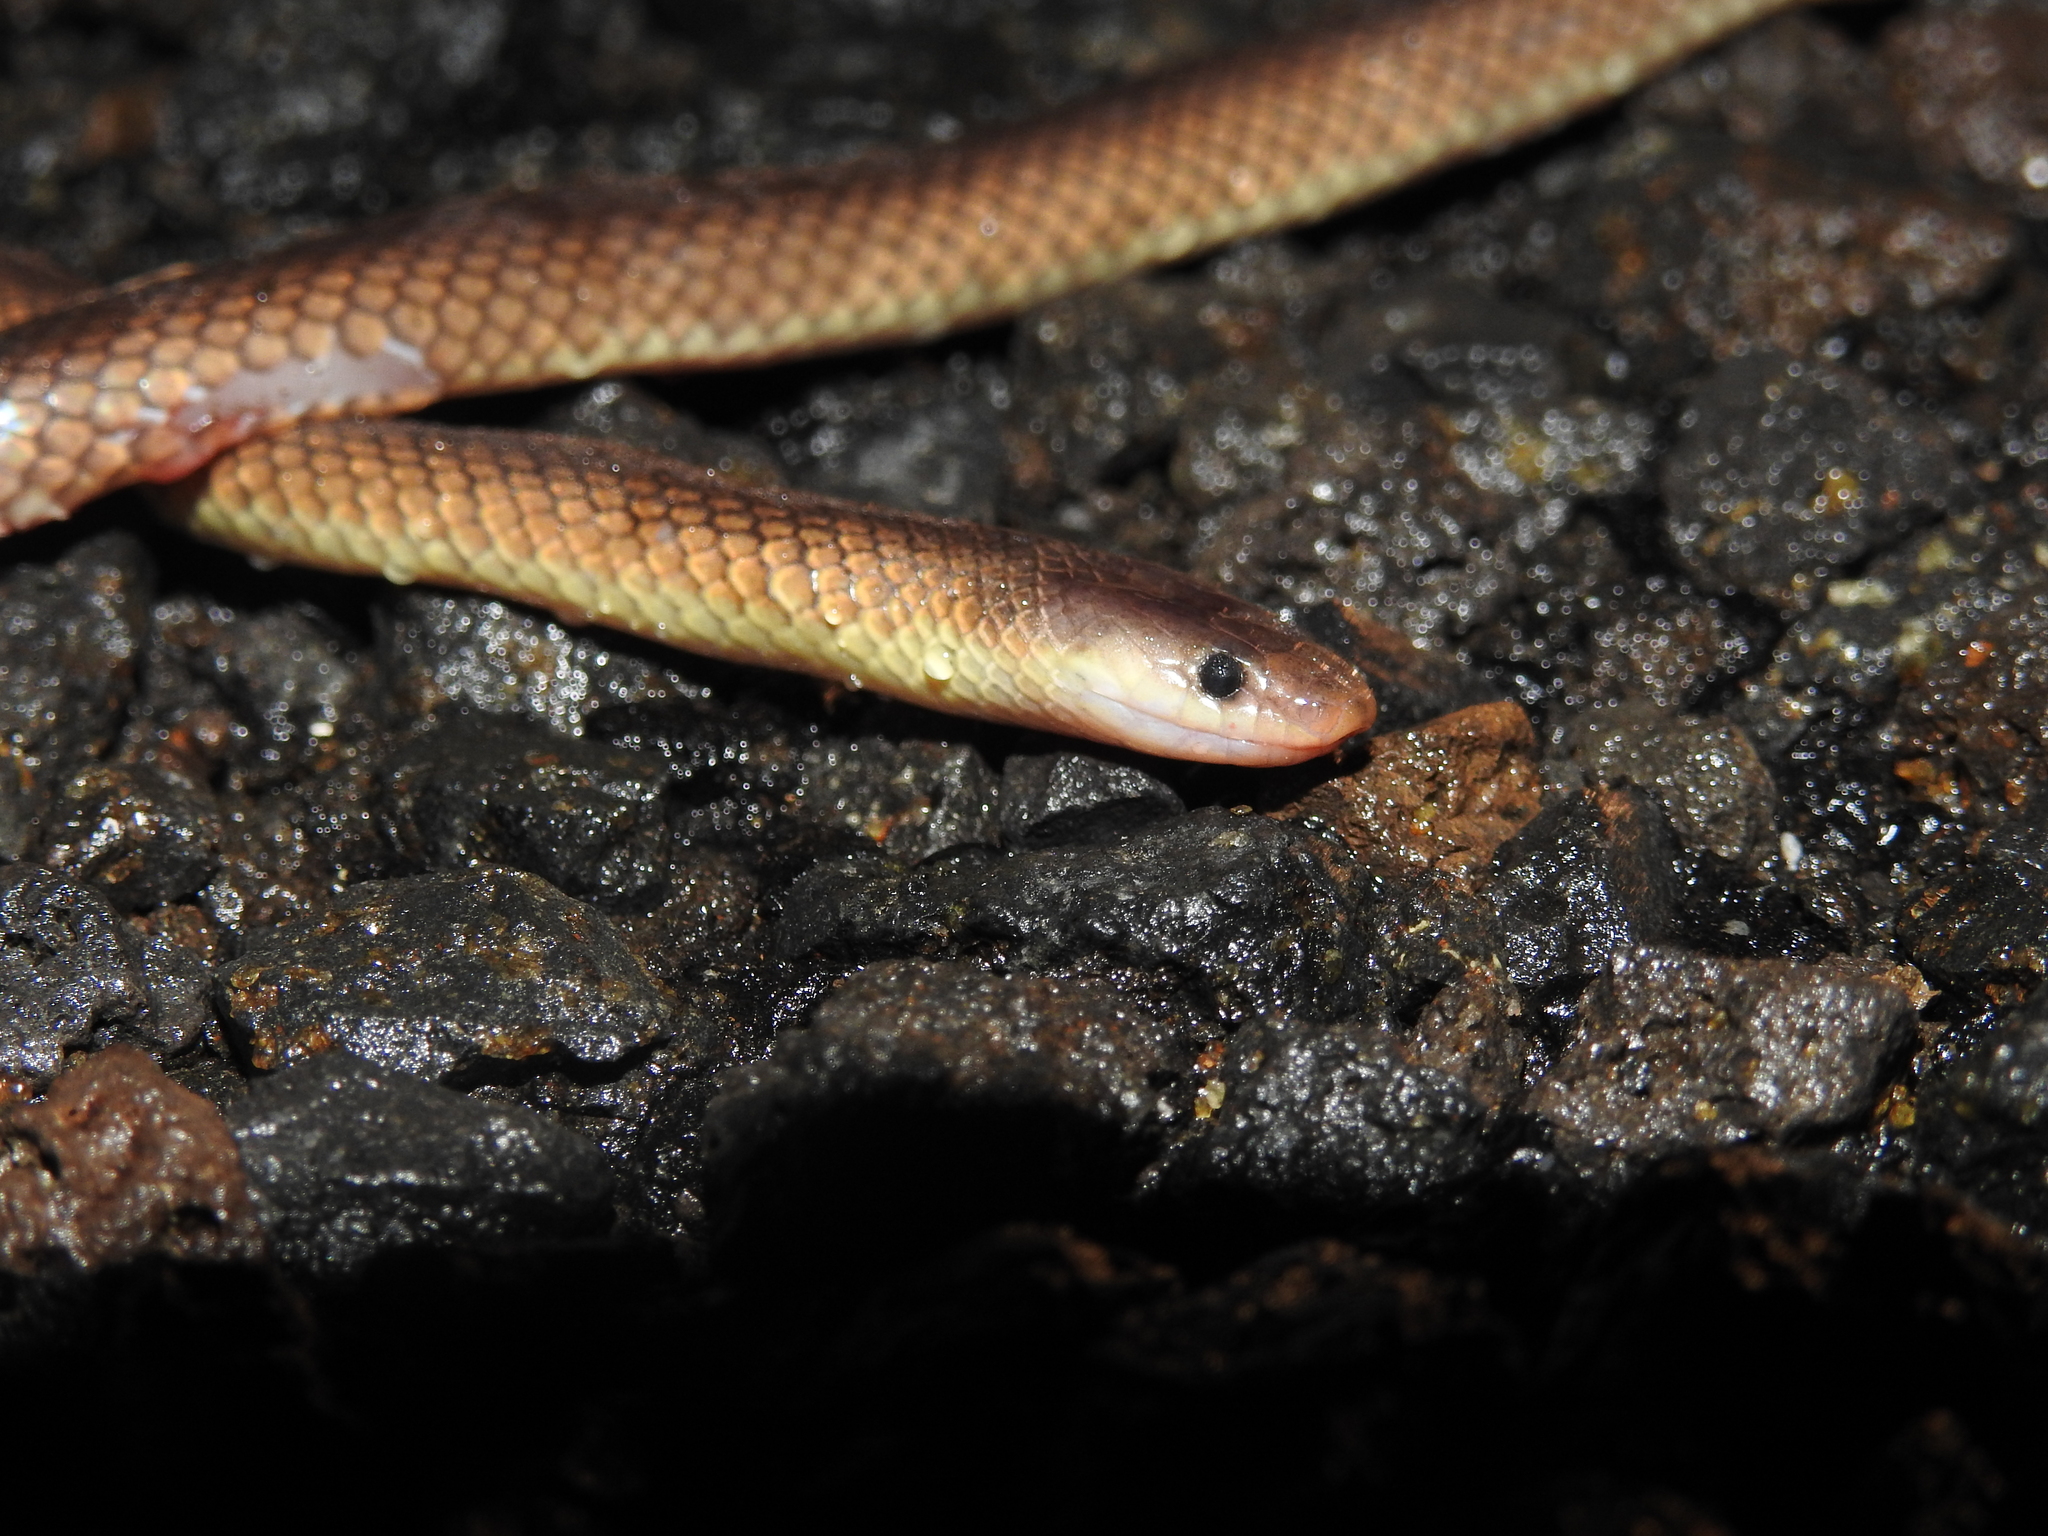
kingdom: Animalia
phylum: Chordata
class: Squamata
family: Elapidae
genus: Cryptophis
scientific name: Cryptophis boschmai
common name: Carpentaria whip snake
